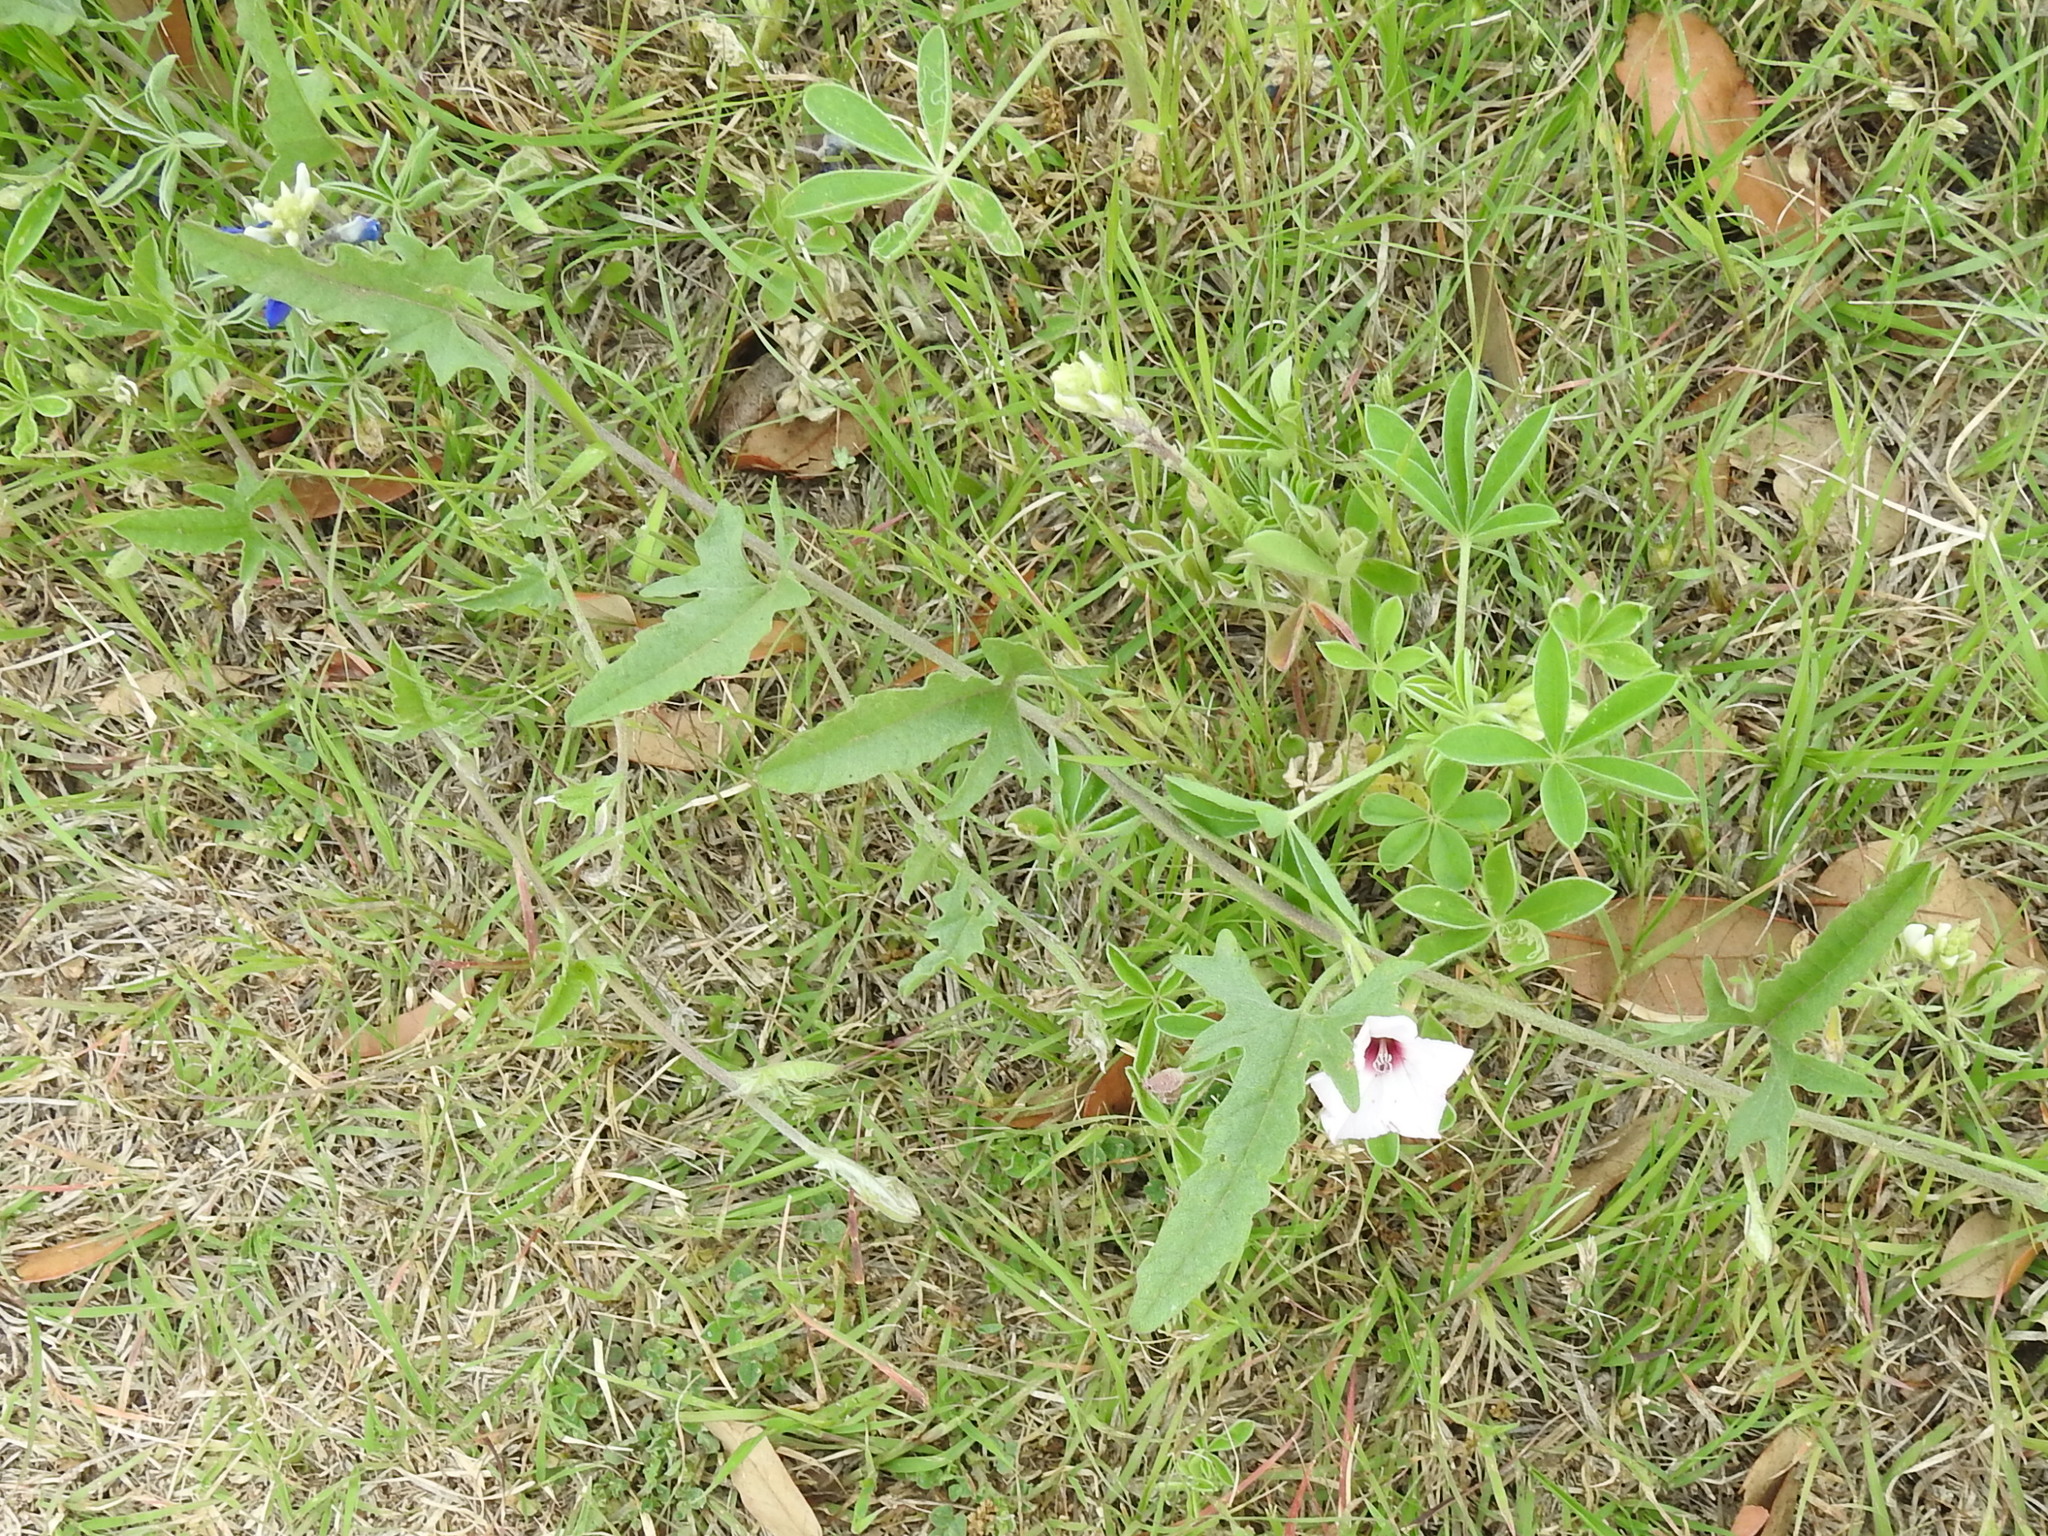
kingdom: Plantae
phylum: Tracheophyta
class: Magnoliopsida
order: Solanales
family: Convolvulaceae
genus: Convolvulus
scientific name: Convolvulus equitans
